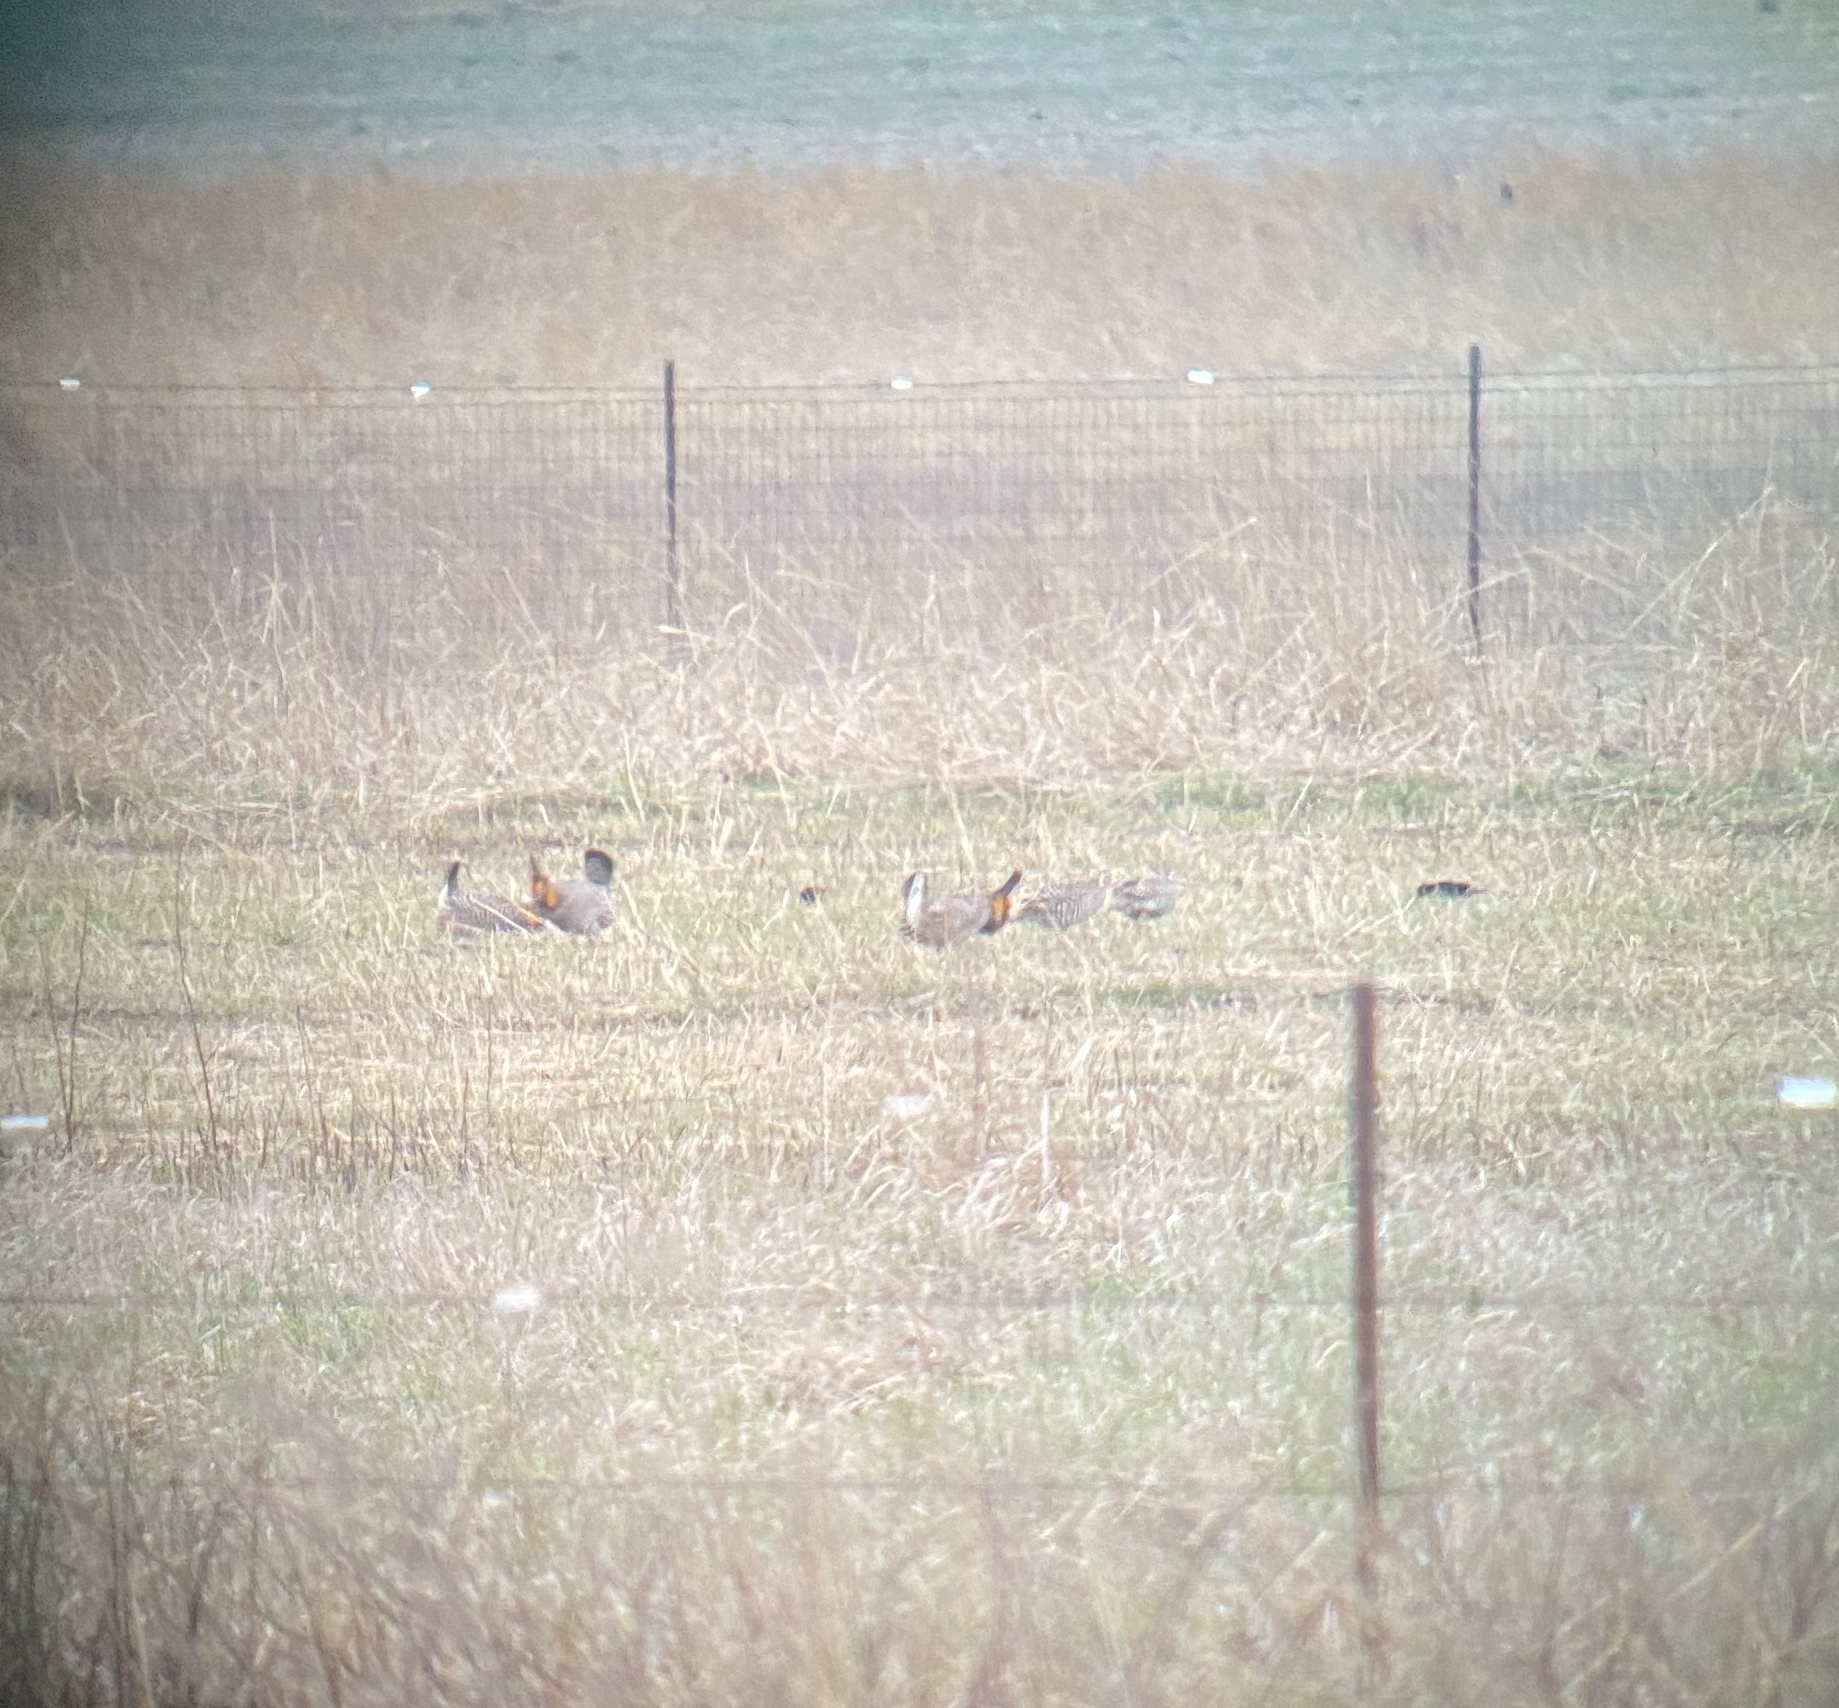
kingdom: Animalia
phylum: Chordata
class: Aves
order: Galliformes
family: Phasianidae
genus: Tympanuchus
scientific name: Tympanuchus cupido
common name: Greater prairie chicken
